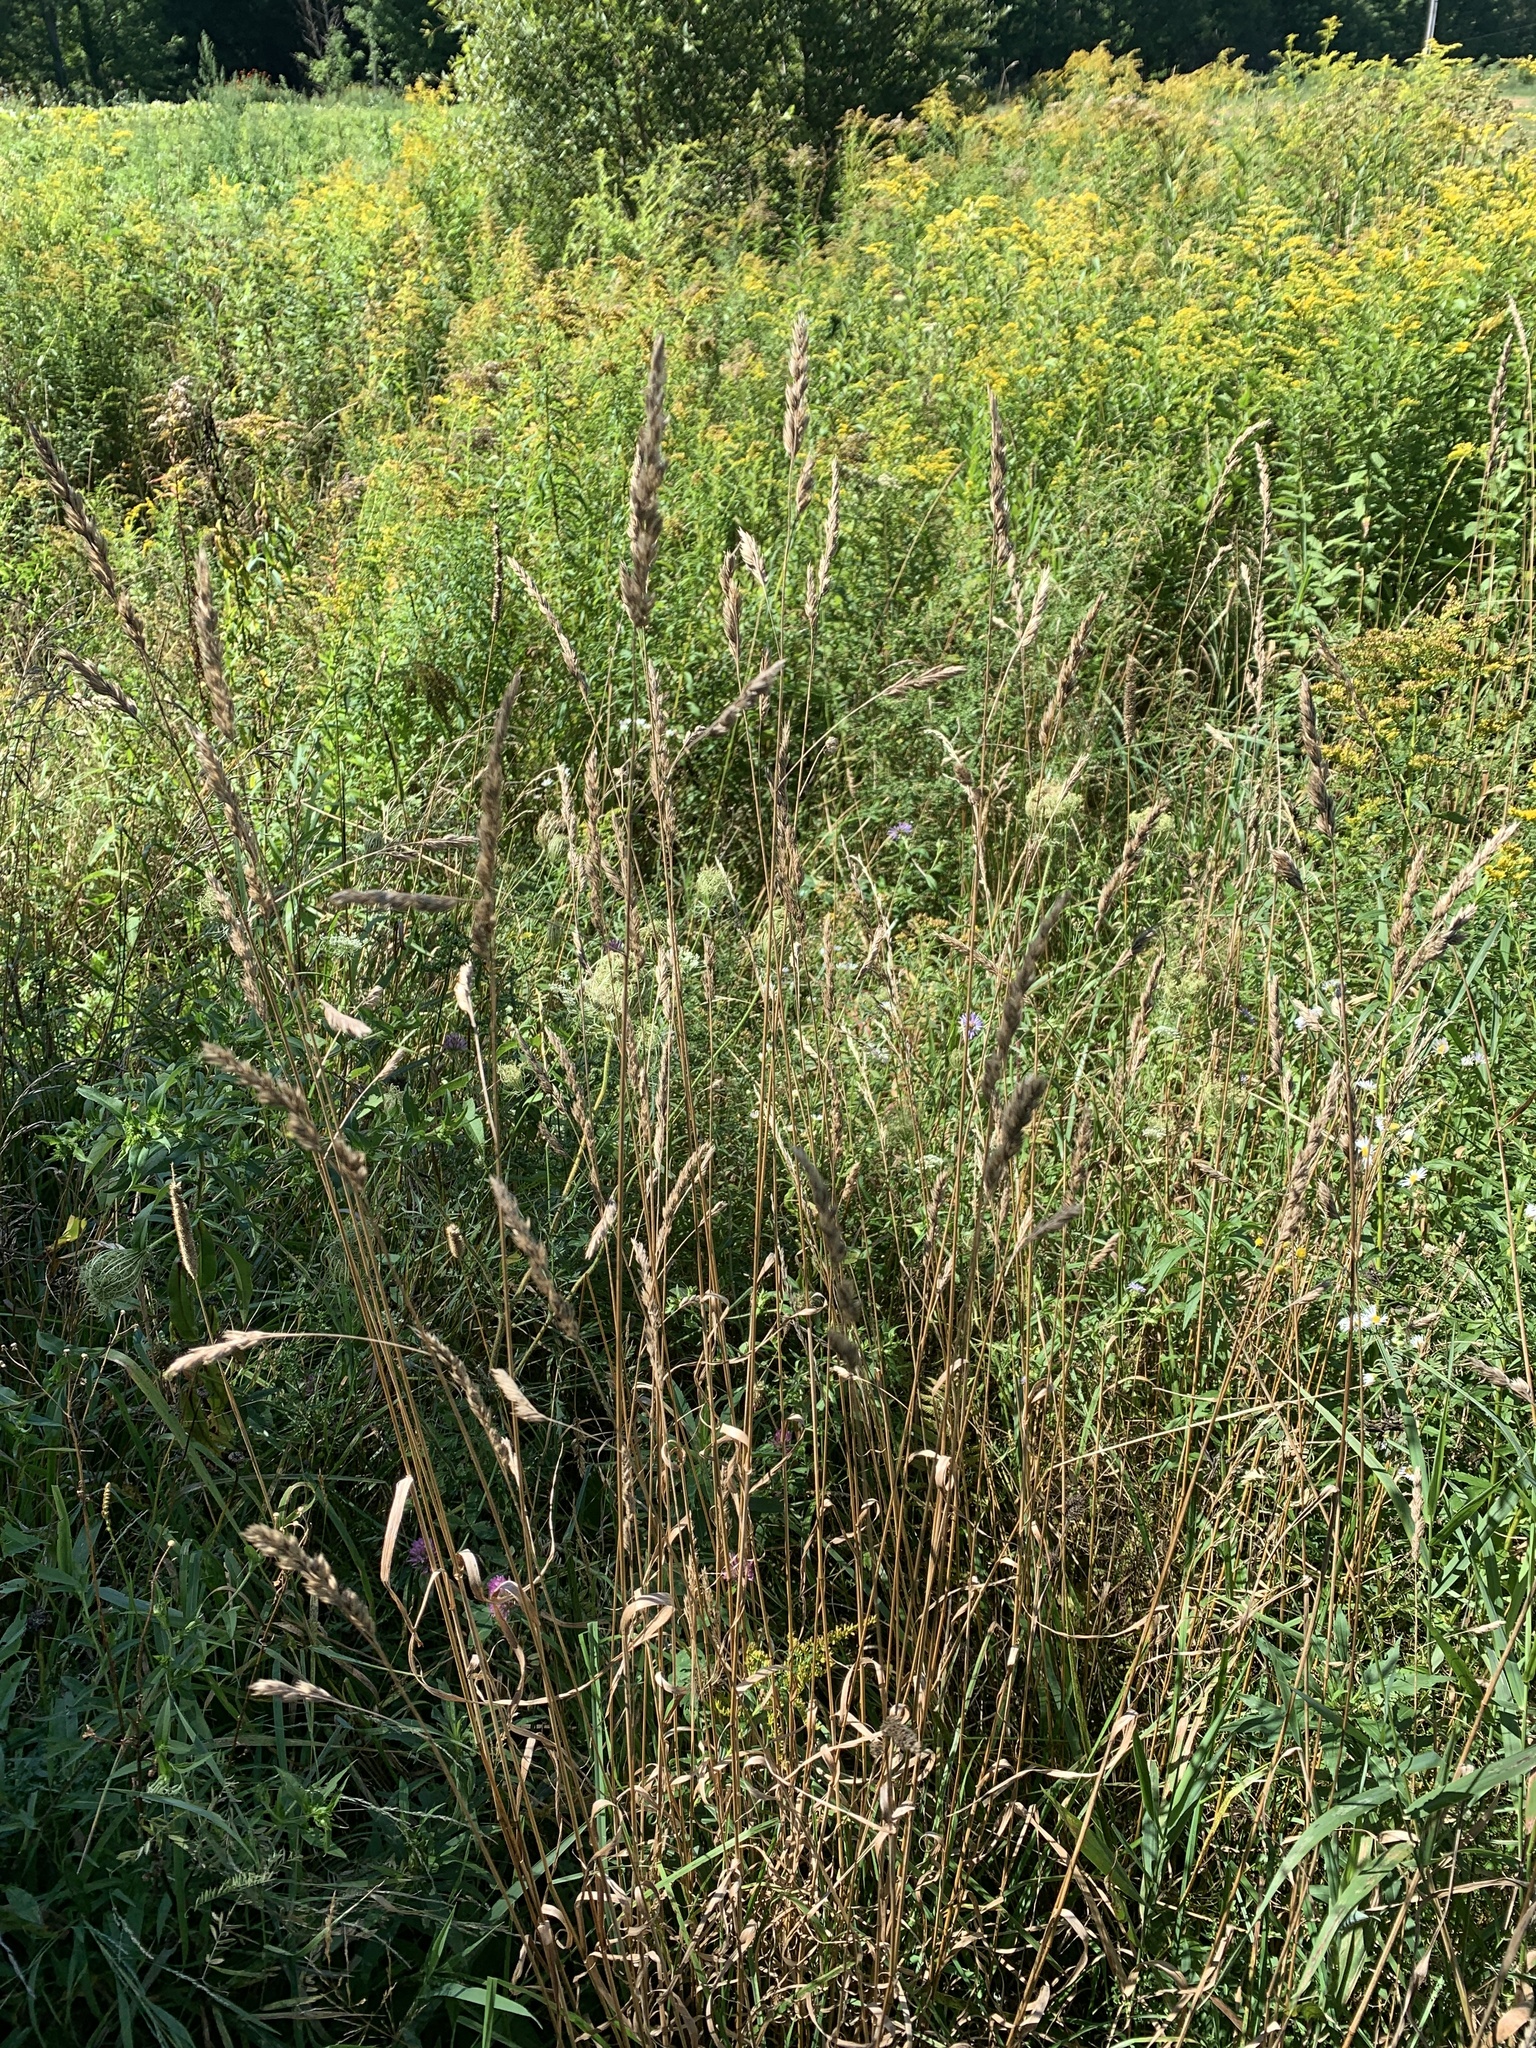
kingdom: Plantae
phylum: Tracheophyta
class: Liliopsida
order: Poales
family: Poaceae
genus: Dactylis
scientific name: Dactylis glomerata
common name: Orchardgrass
